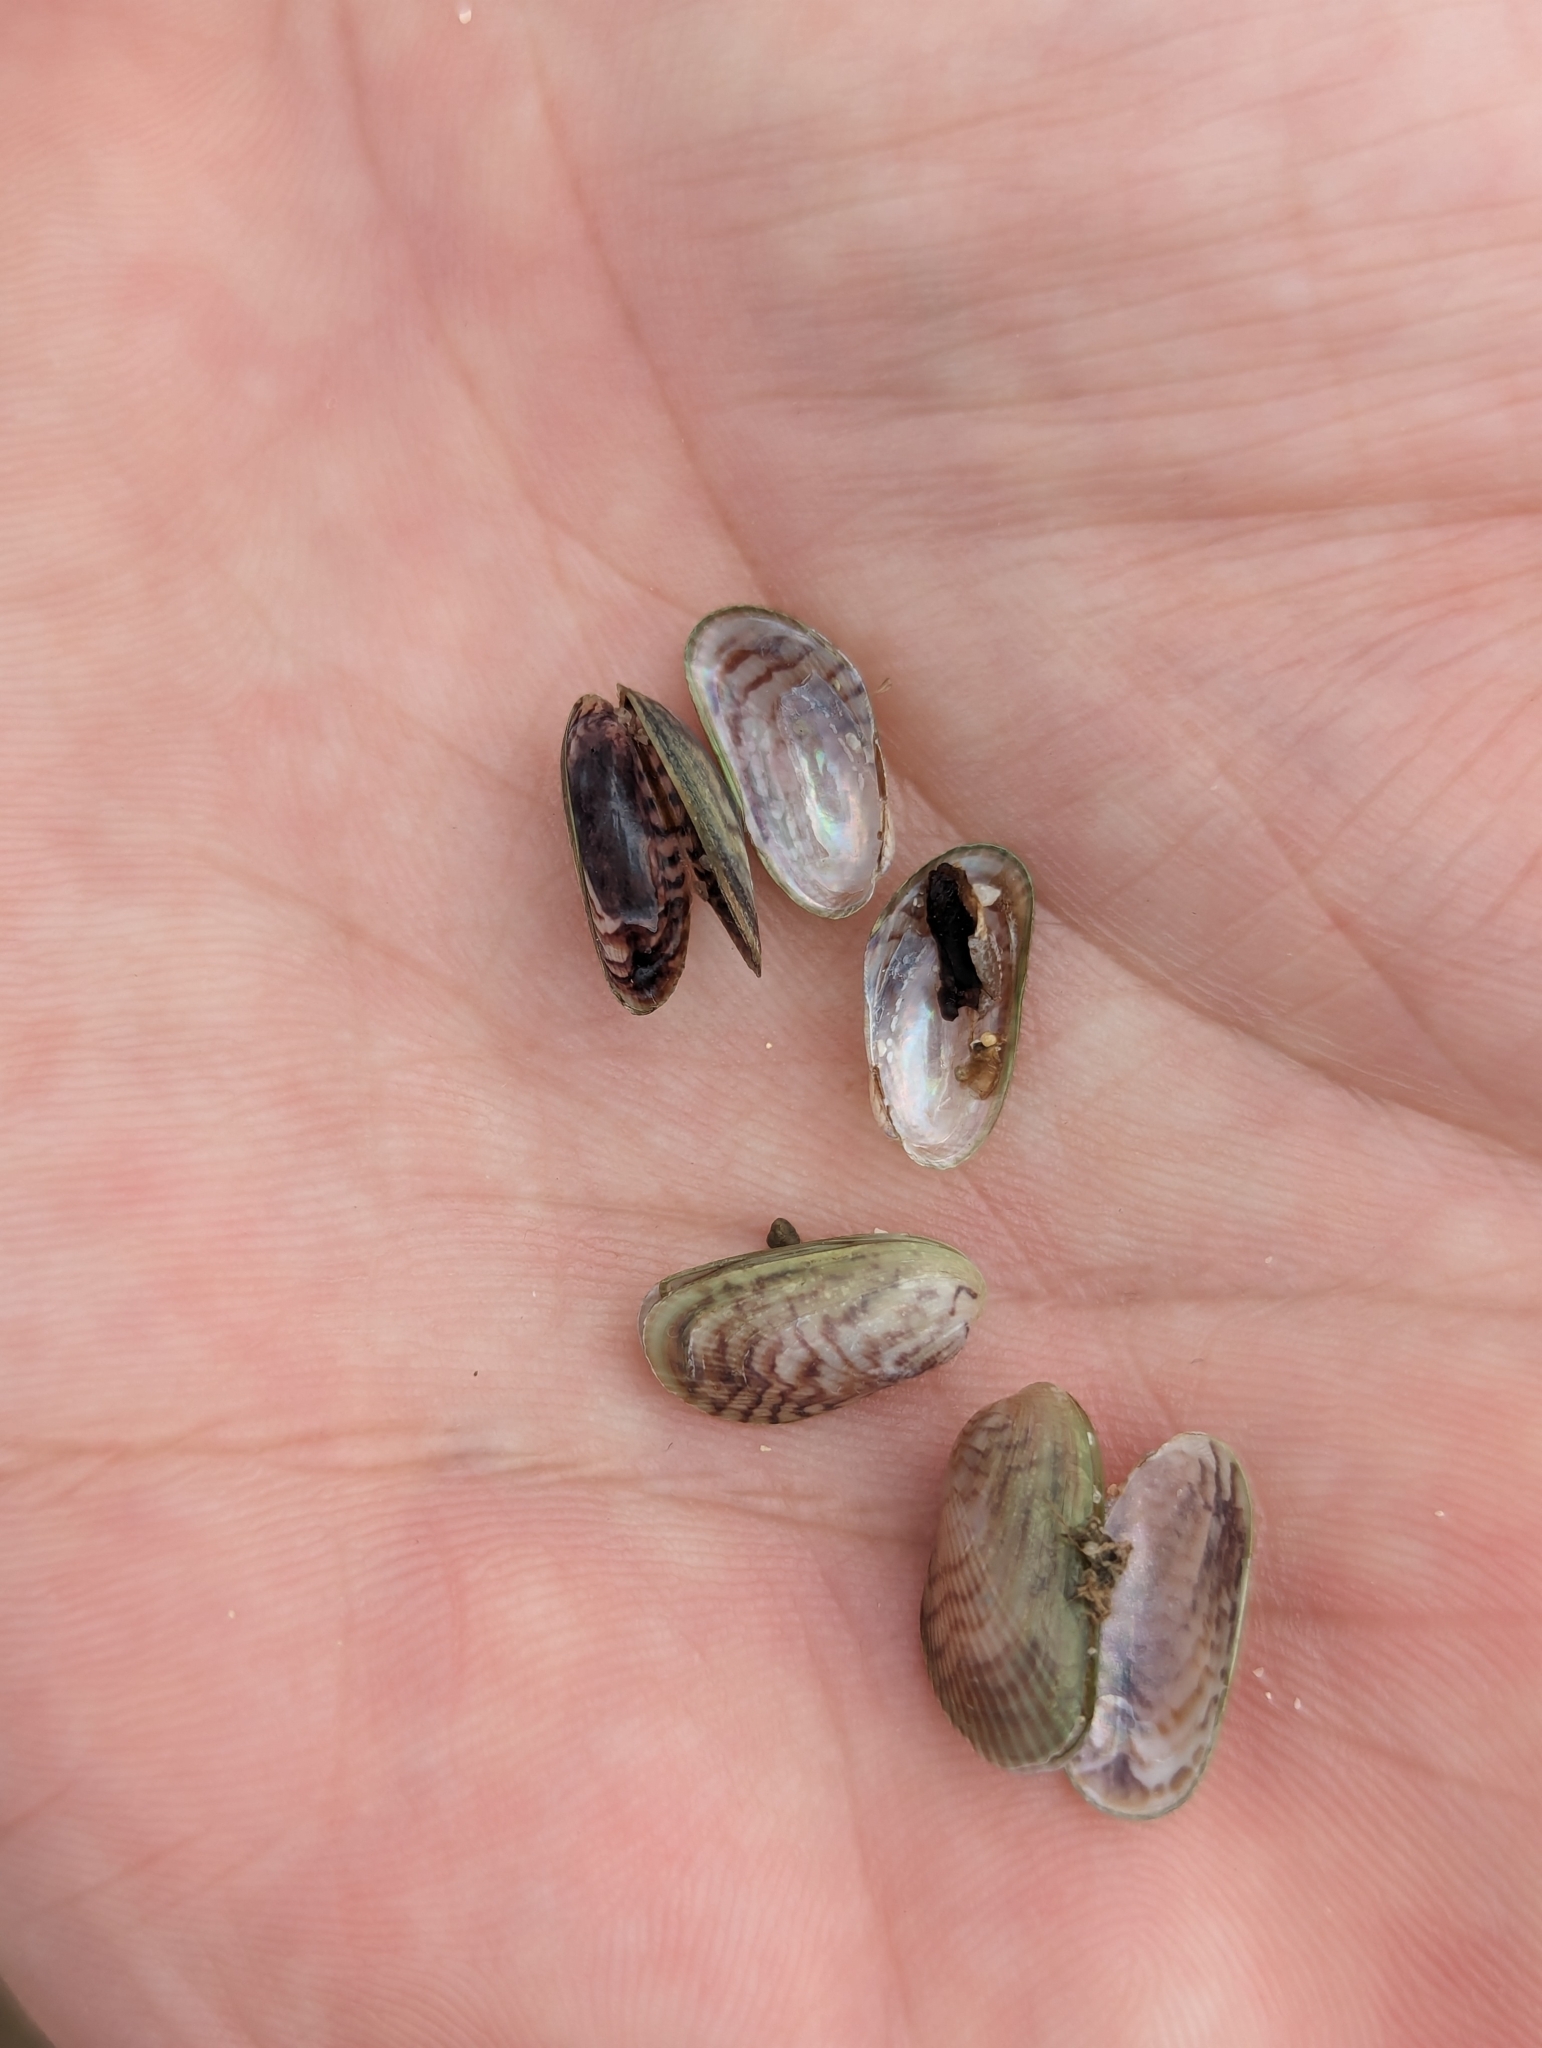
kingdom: Animalia
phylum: Mollusca
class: Bivalvia
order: Mytilida
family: Mytilidae
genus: Arcuatula
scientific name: Arcuatula senhousia
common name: Asian mussel
